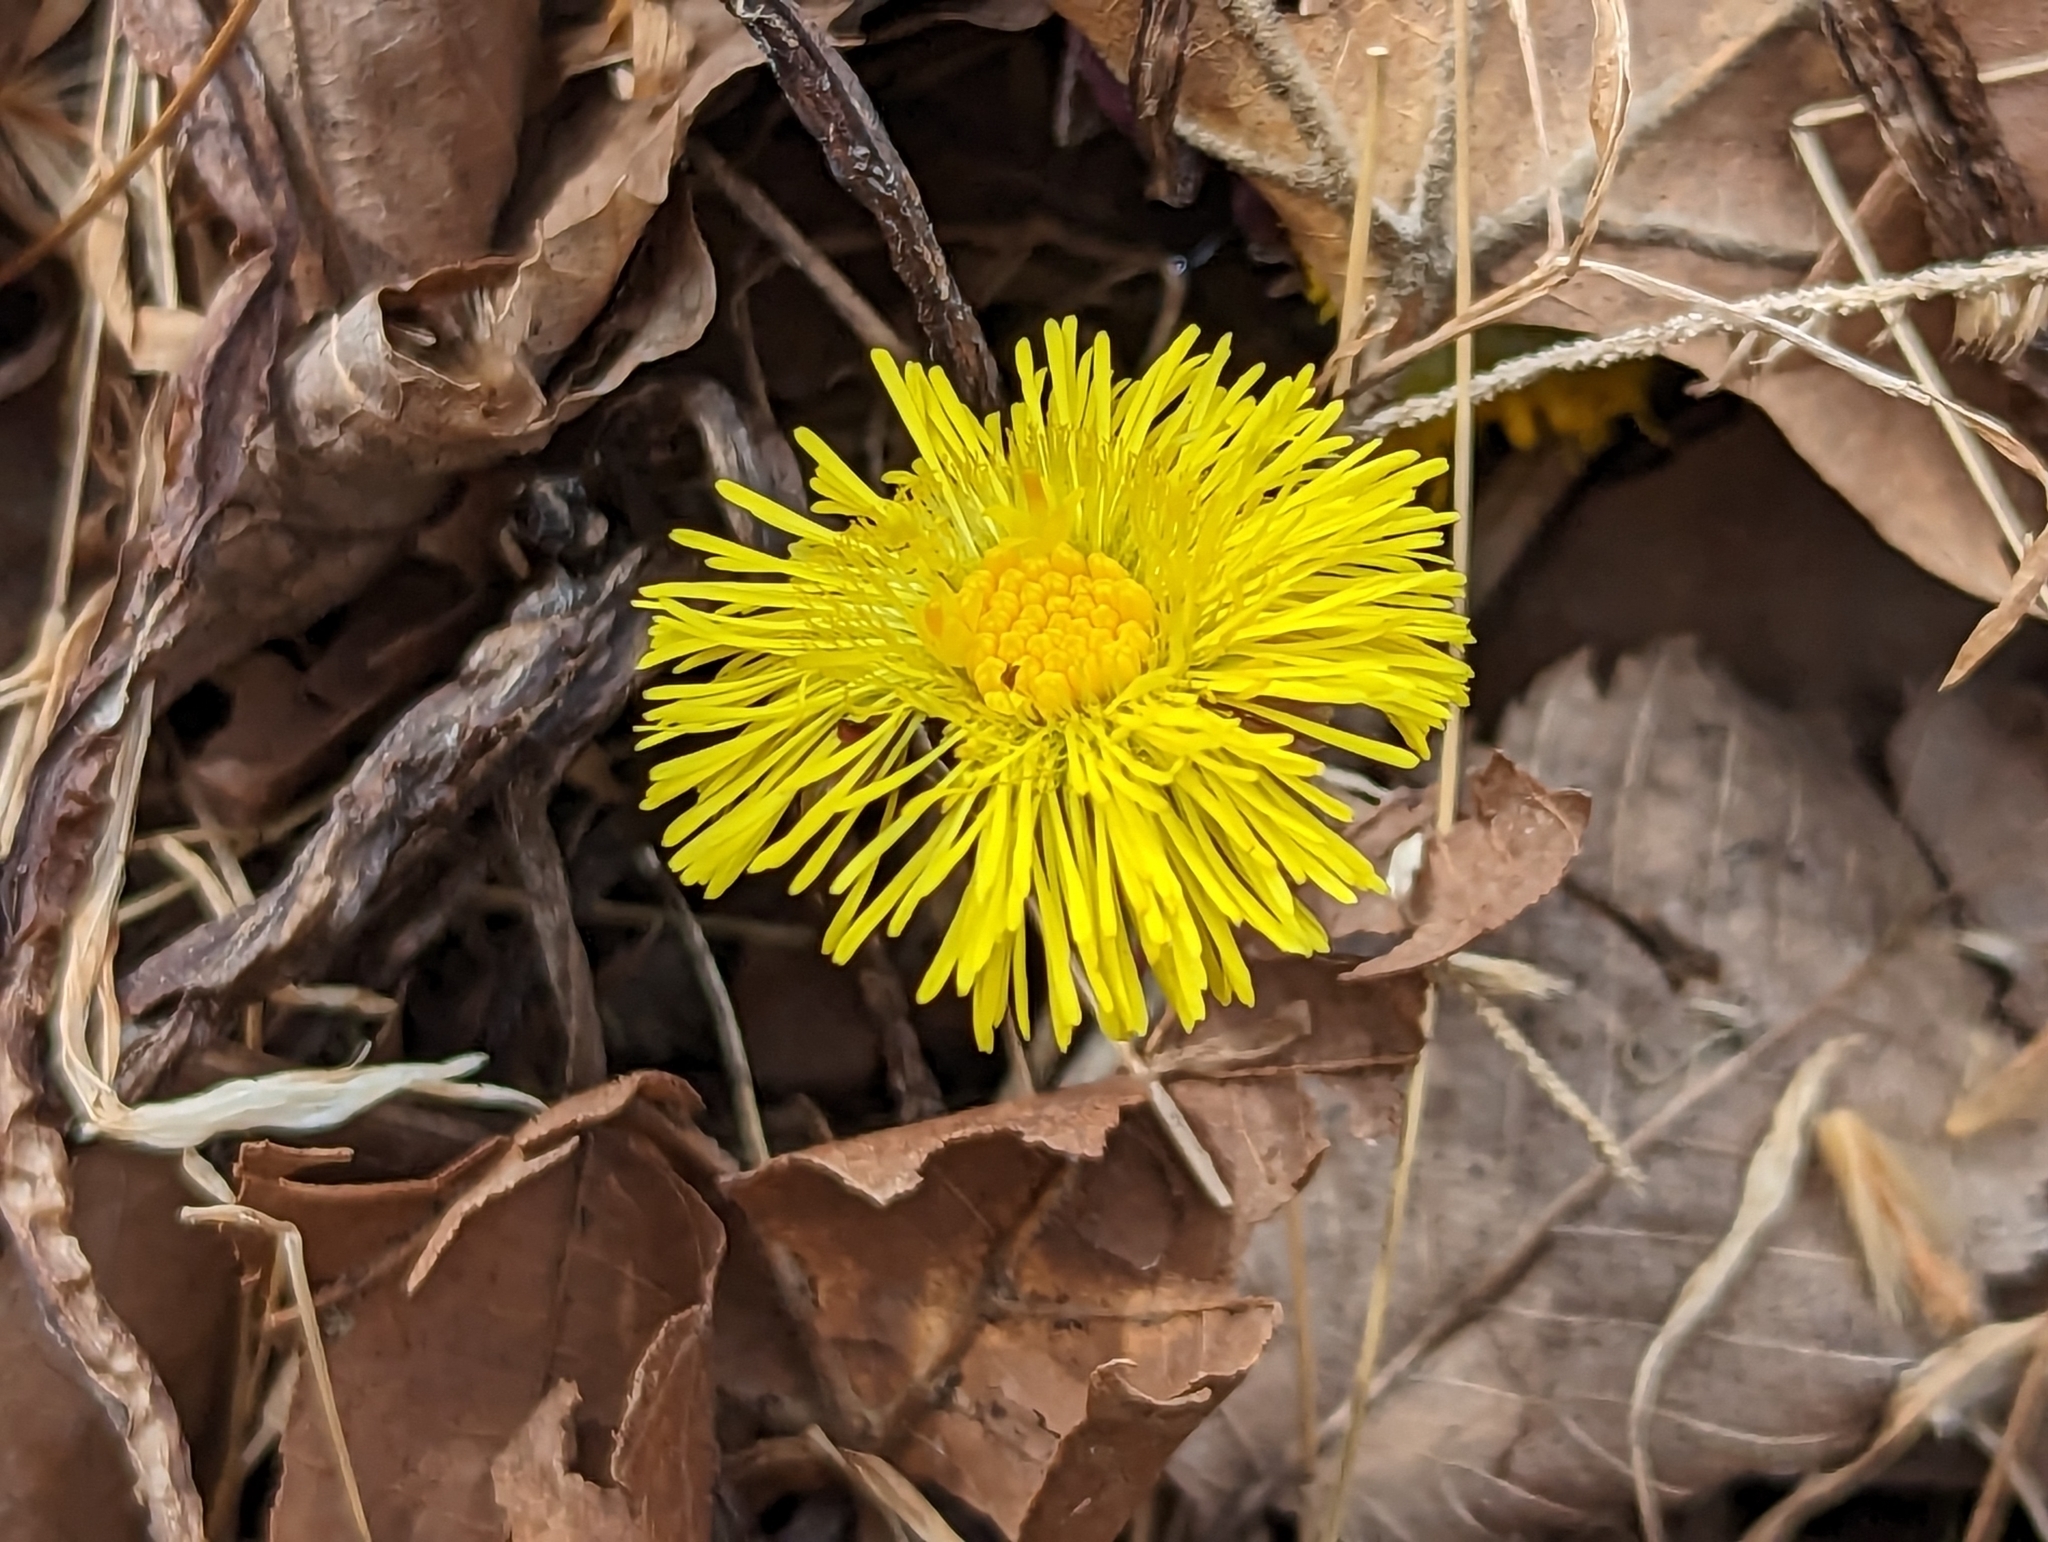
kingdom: Plantae
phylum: Tracheophyta
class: Magnoliopsida
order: Asterales
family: Asteraceae
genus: Tussilago
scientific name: Tussilago farfara
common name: Coltsfoot
